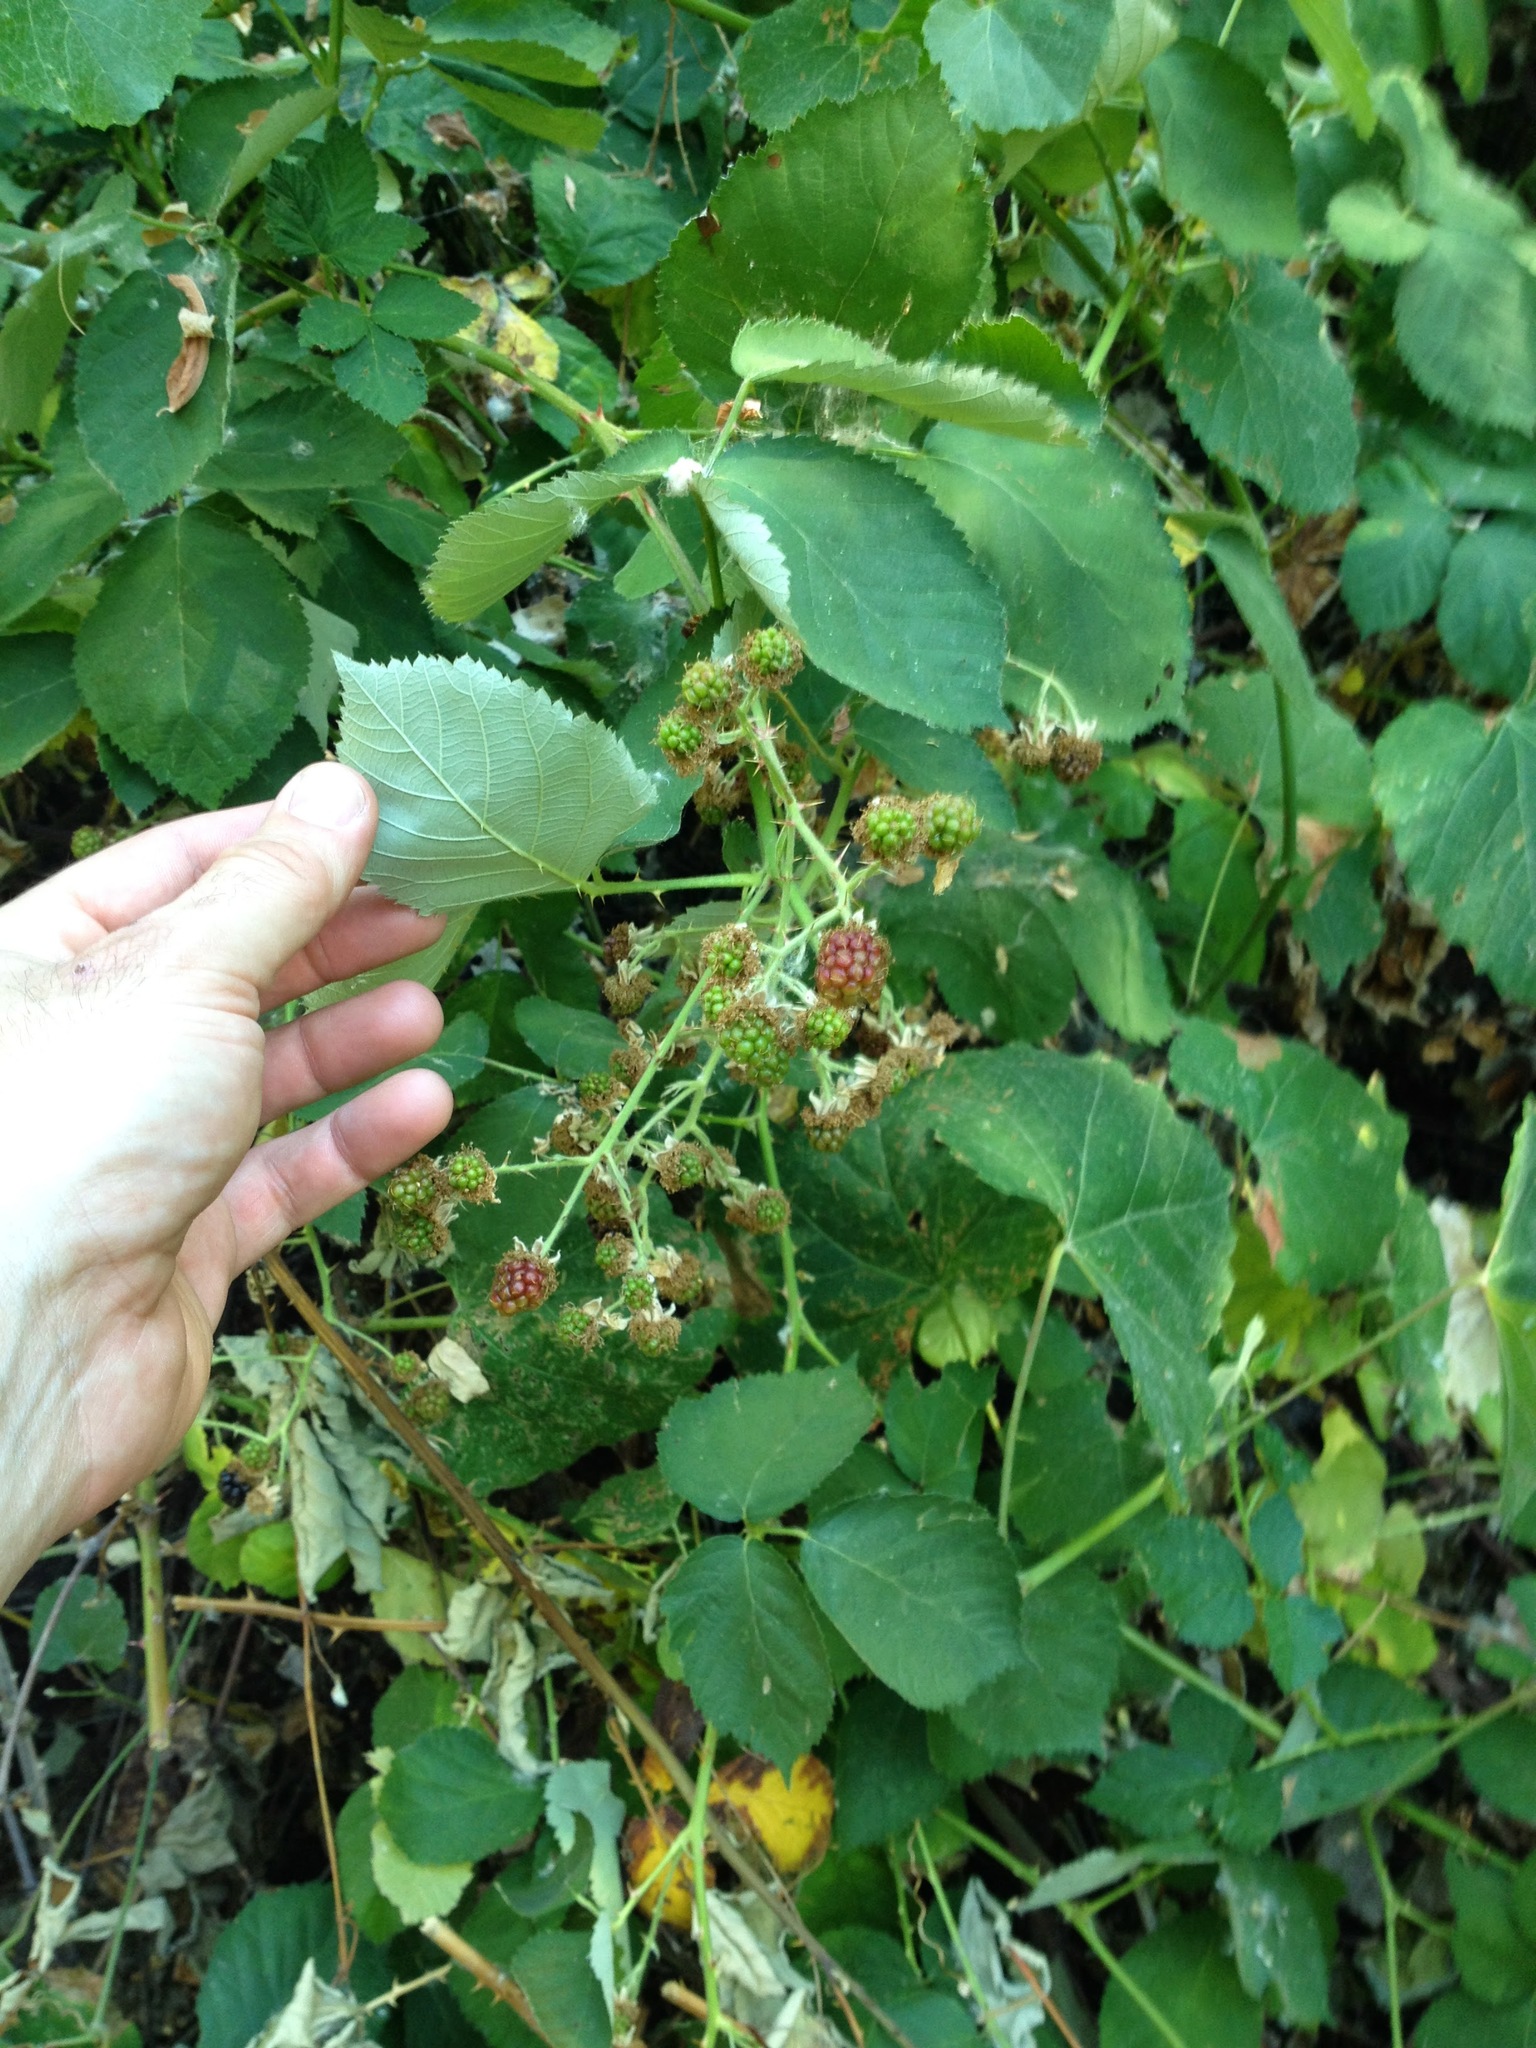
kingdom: Plantae
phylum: Tracheophyta
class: Magnoliopsida
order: Rosales
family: Rosaceae
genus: Rubus
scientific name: Rubus armeniacus
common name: Himalayan blackberry
